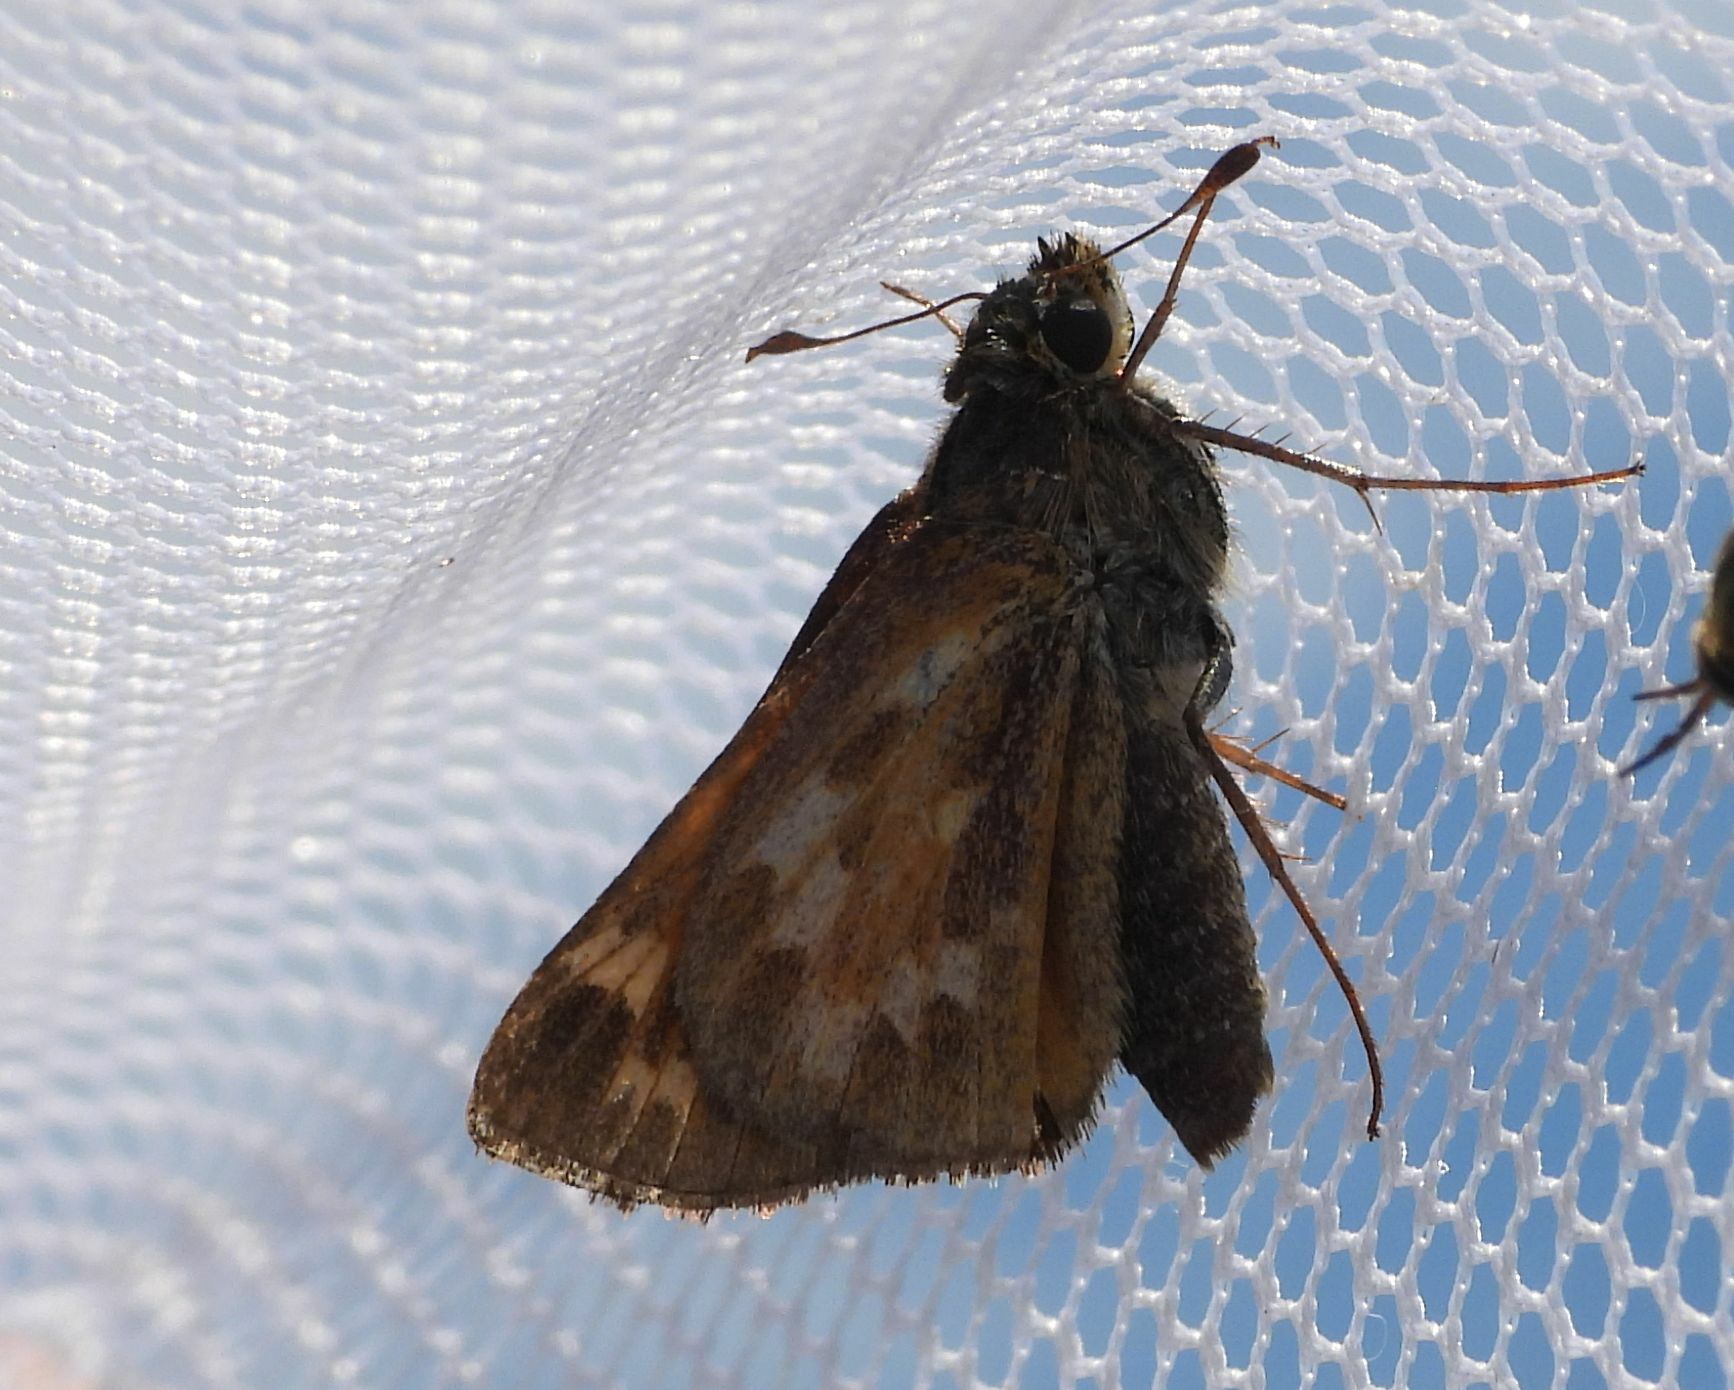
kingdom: Animalia
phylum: Arthropoda
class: Insecta
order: Lepidoptera
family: Hesperiidae
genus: Hesperia
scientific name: Hesperia sassacus
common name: Indian skipper
